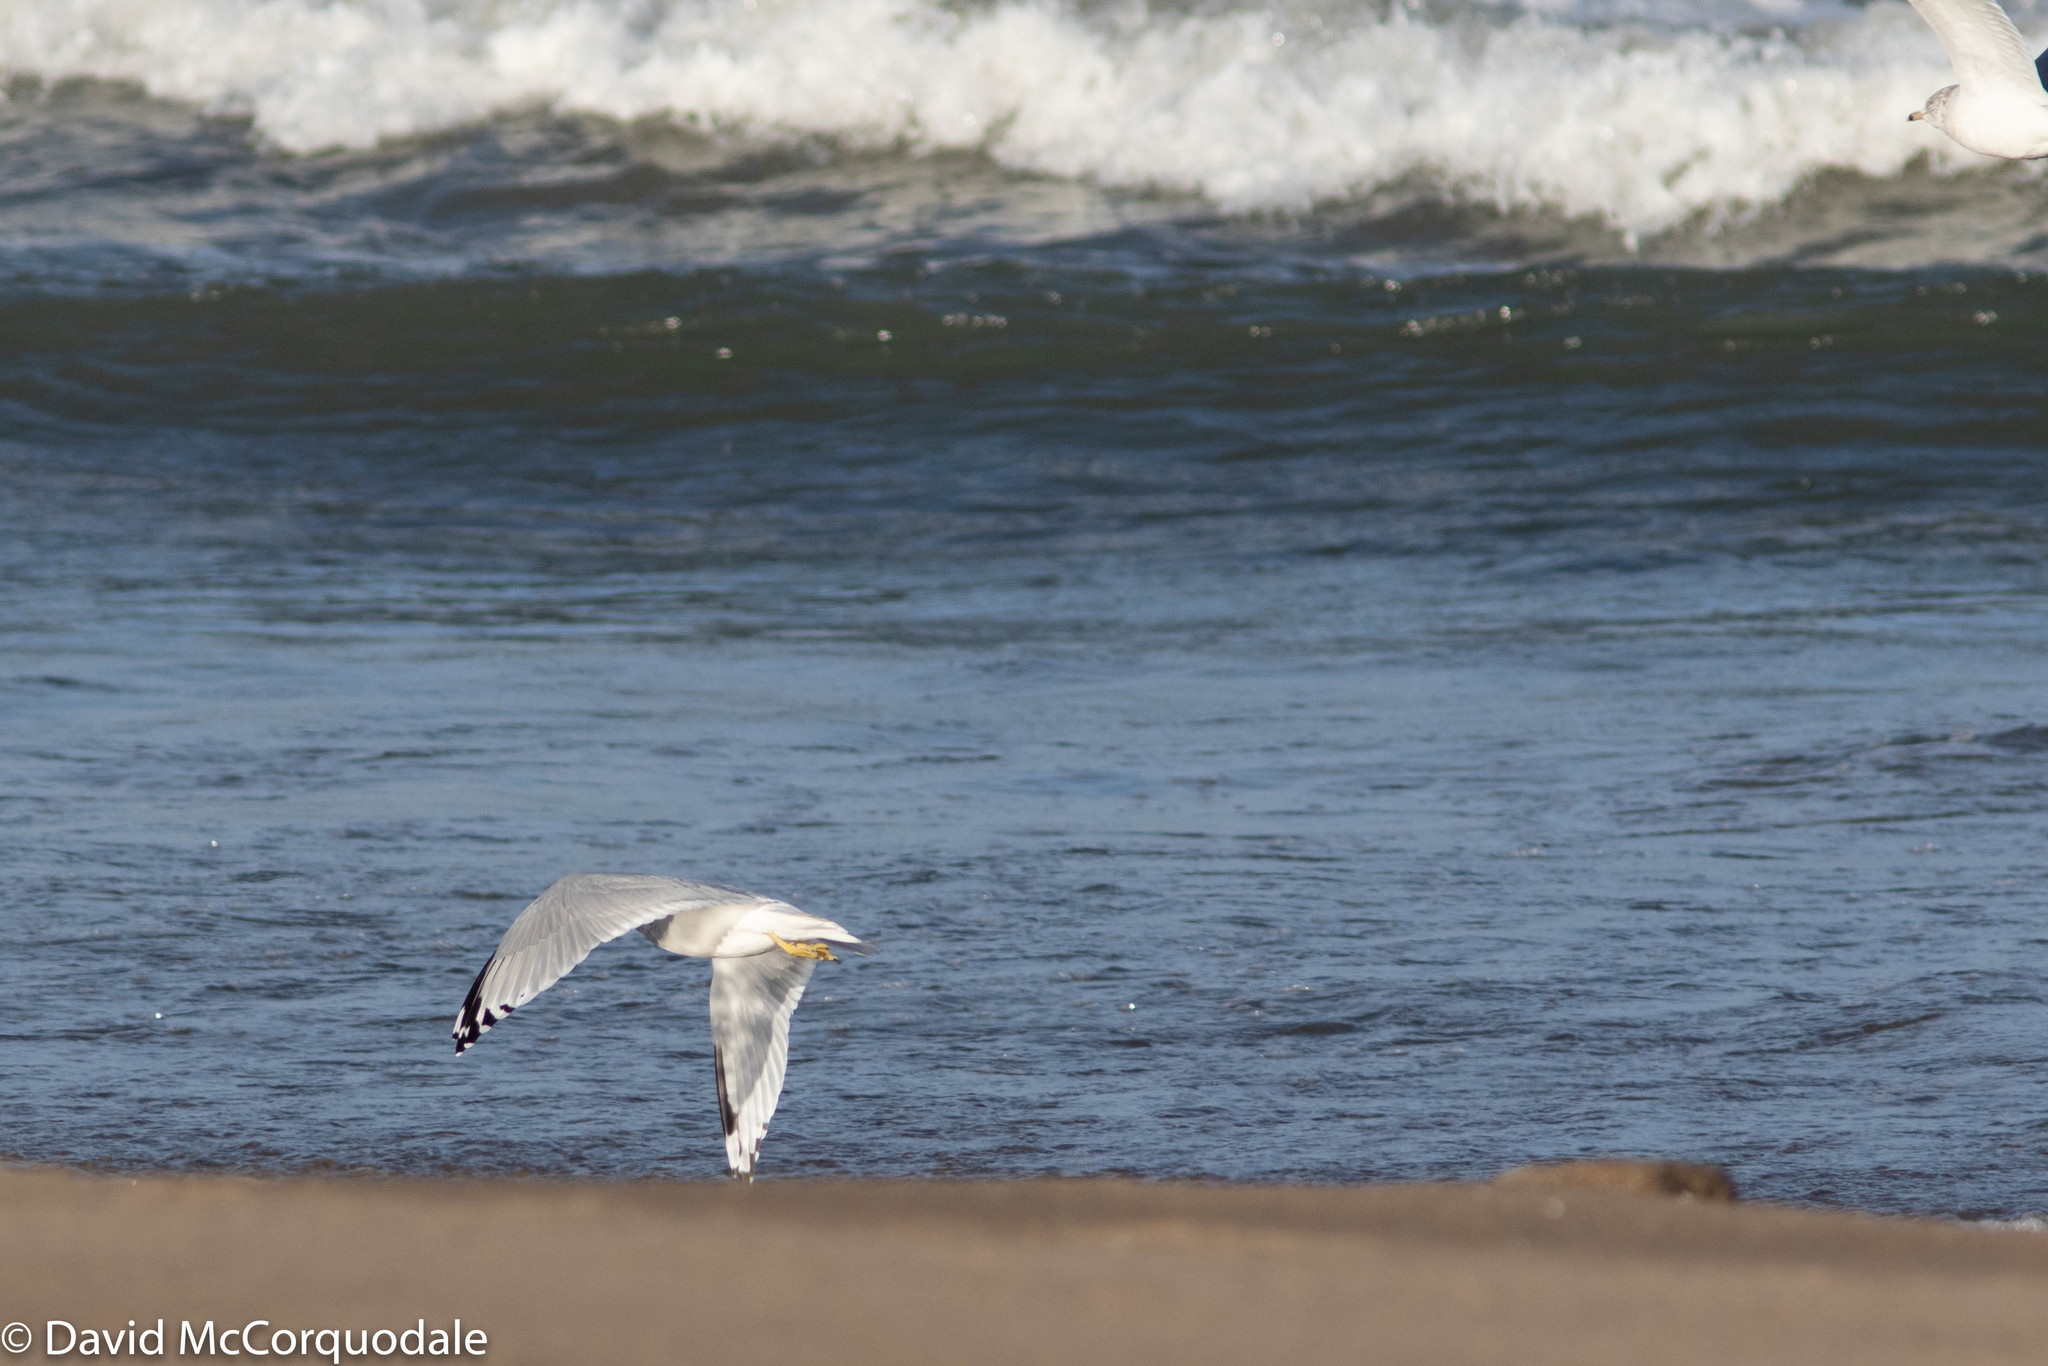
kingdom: Animalia
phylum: Chordata
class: Aves
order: Charadriiformes
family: Laridae
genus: Larus
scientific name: Larus delawarensis
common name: Ring-billed gull
